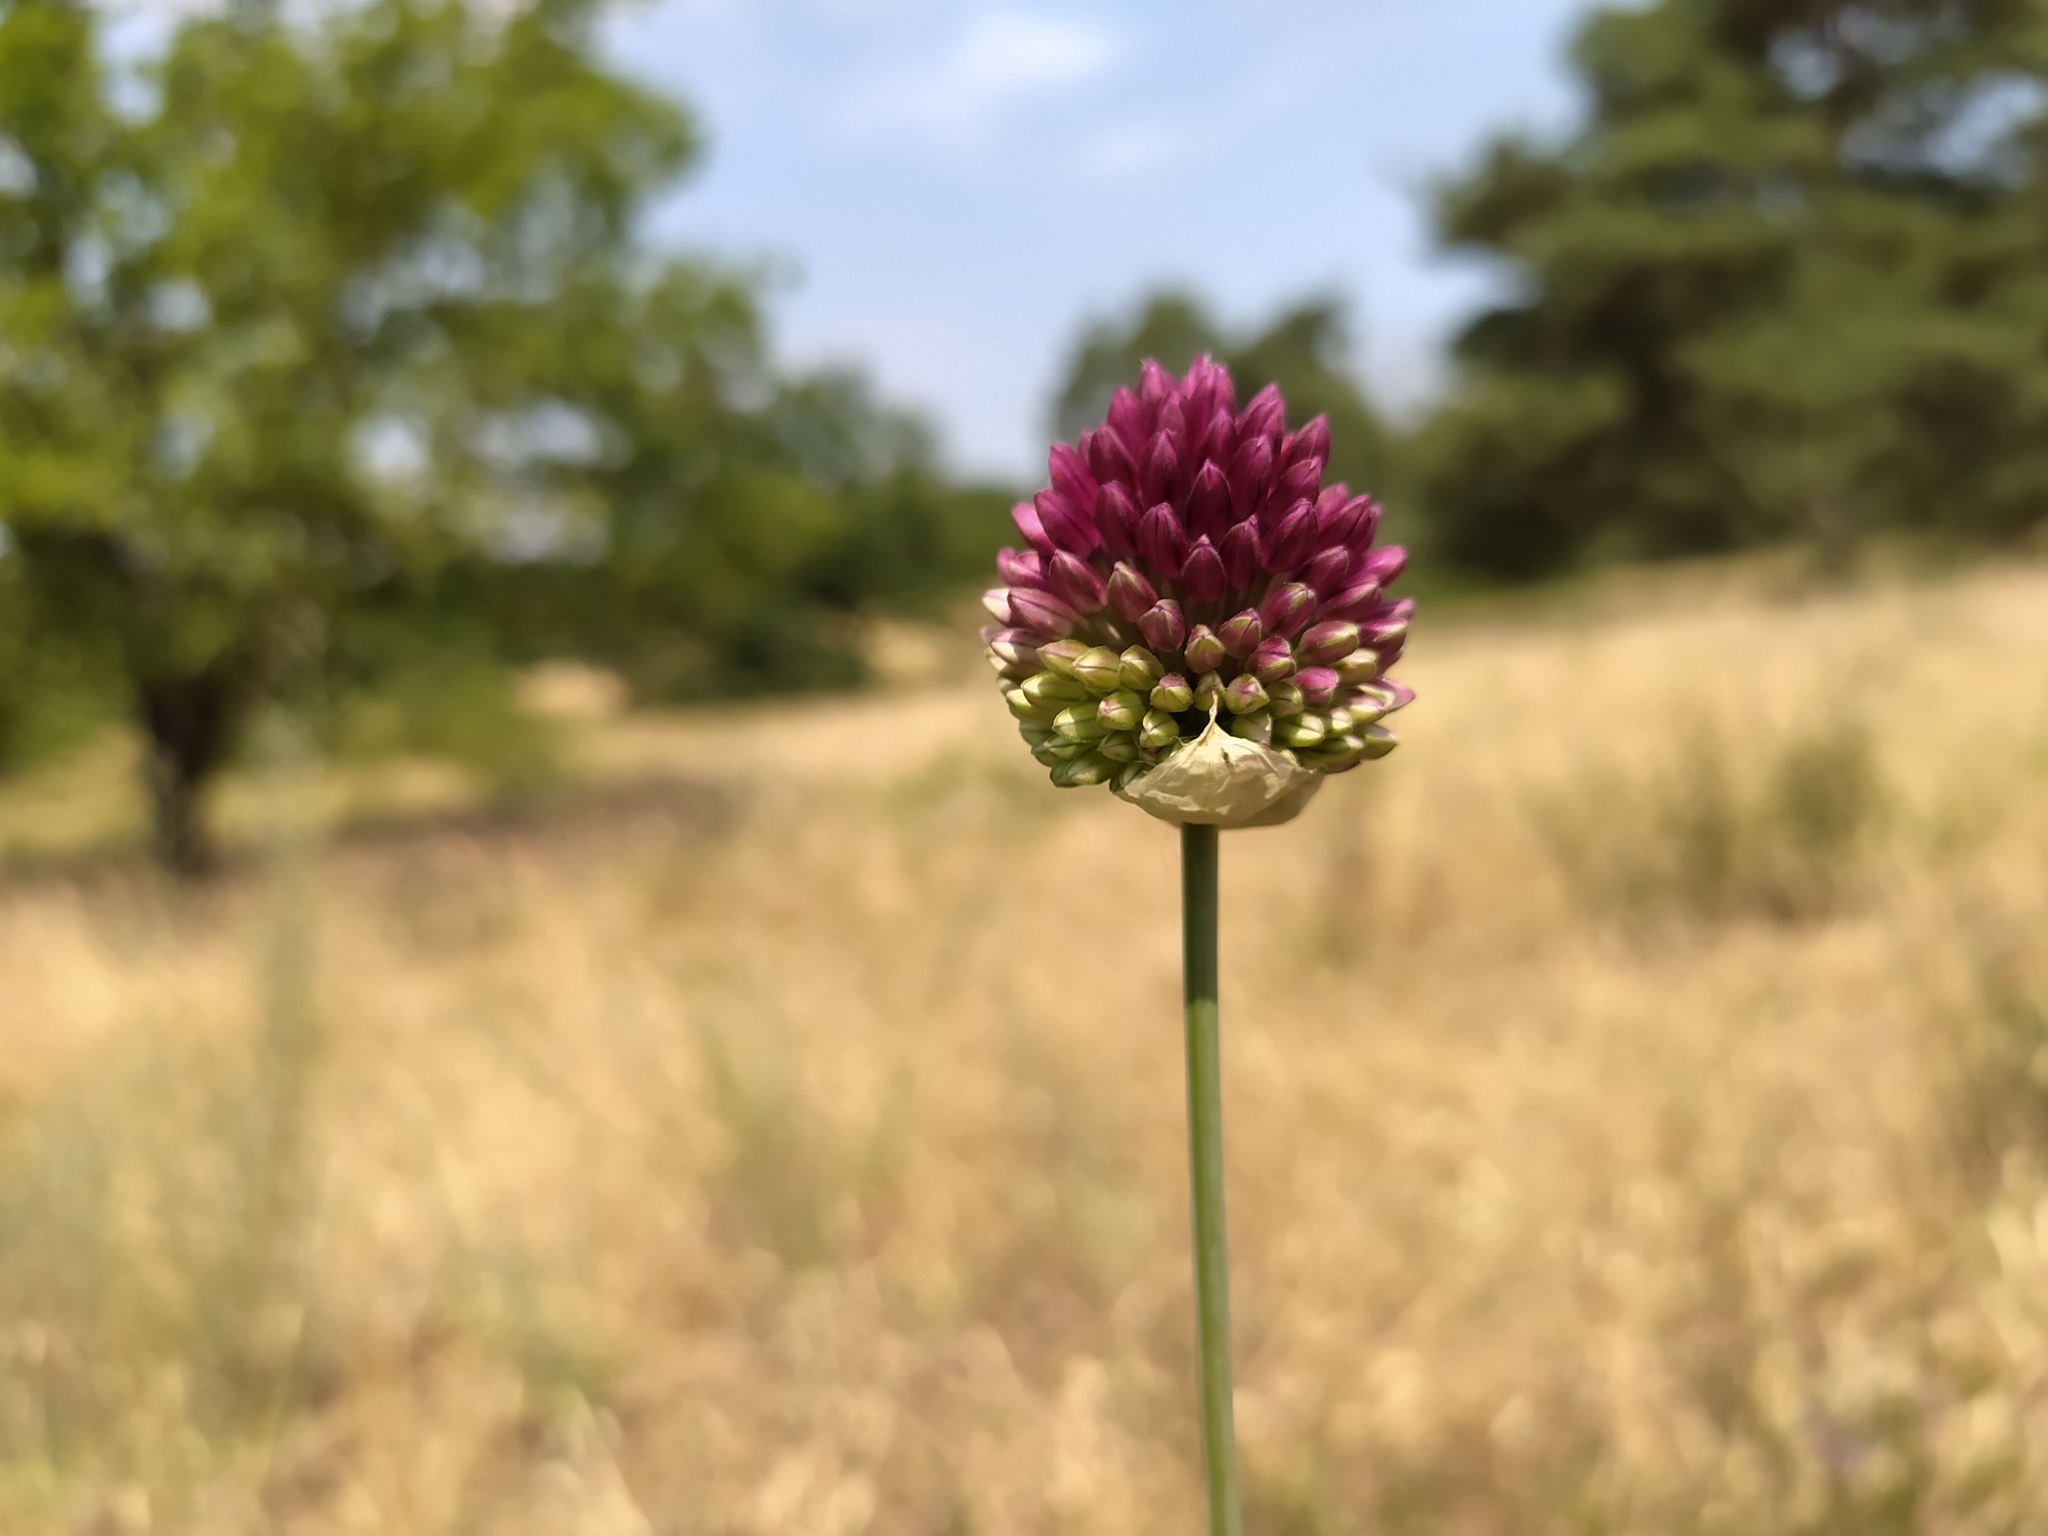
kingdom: Plantae
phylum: Tracheophyta
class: Liliopsida
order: Asparagales
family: Amaryllidaceae
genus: Allium
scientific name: Allium sphaerocephalon
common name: Round-headed leek
